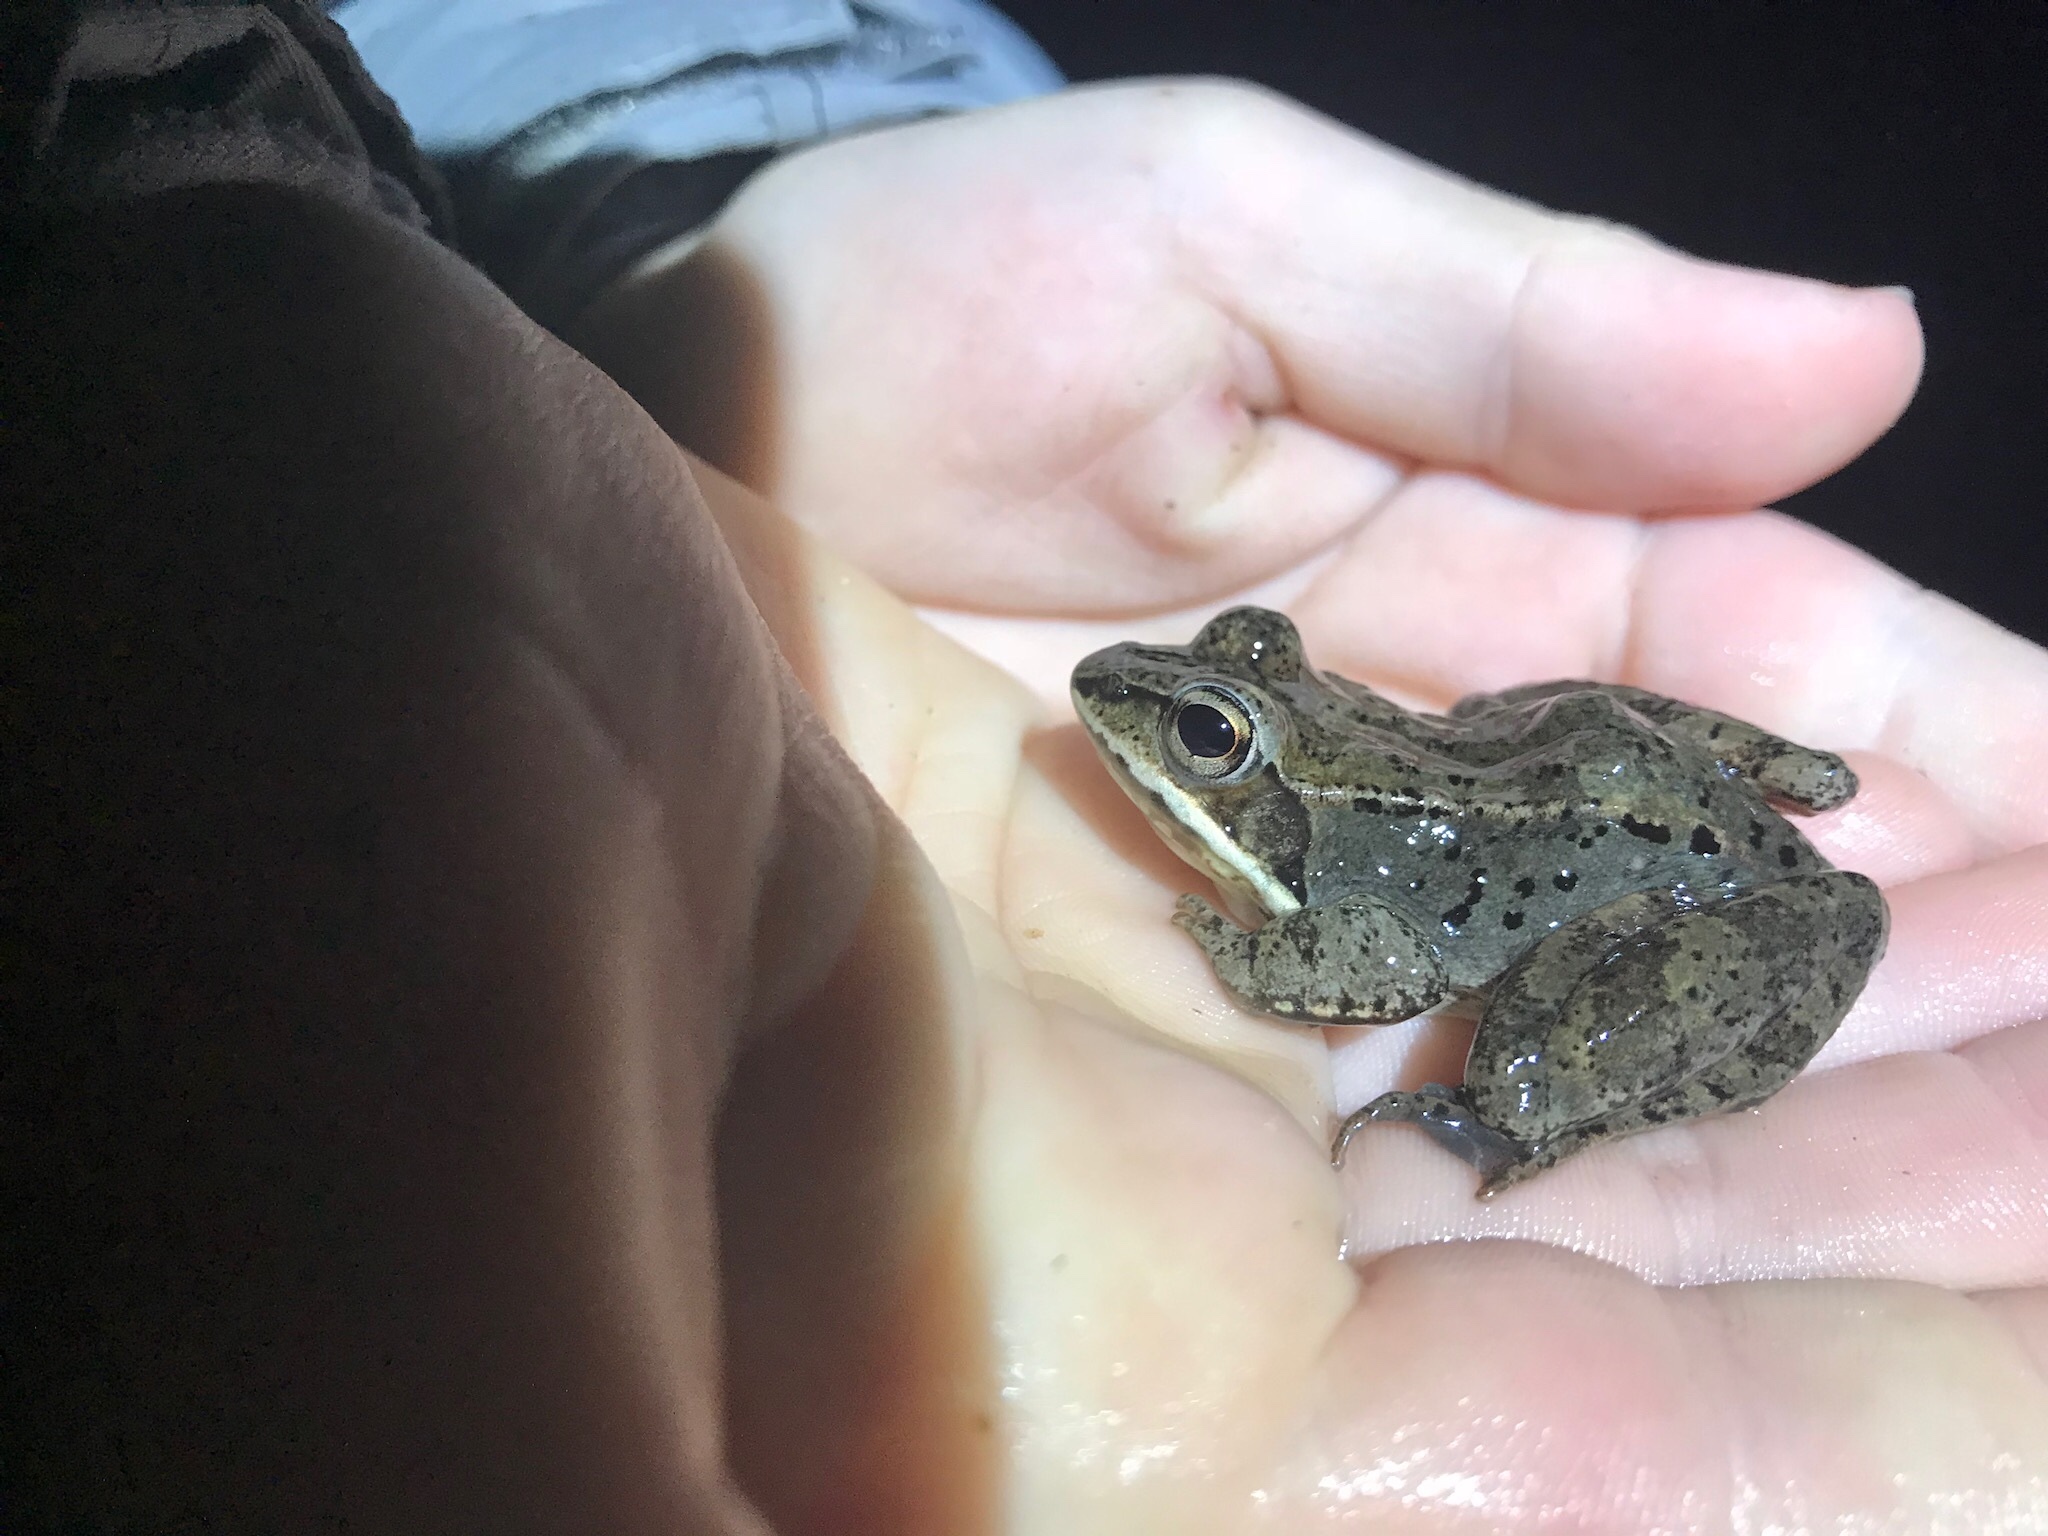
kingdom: Animalia
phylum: Chordata
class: Amphibia
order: Anura
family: Ranidae
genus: Lithobates
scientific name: Lithobates sylvaticus
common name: Wood frog
